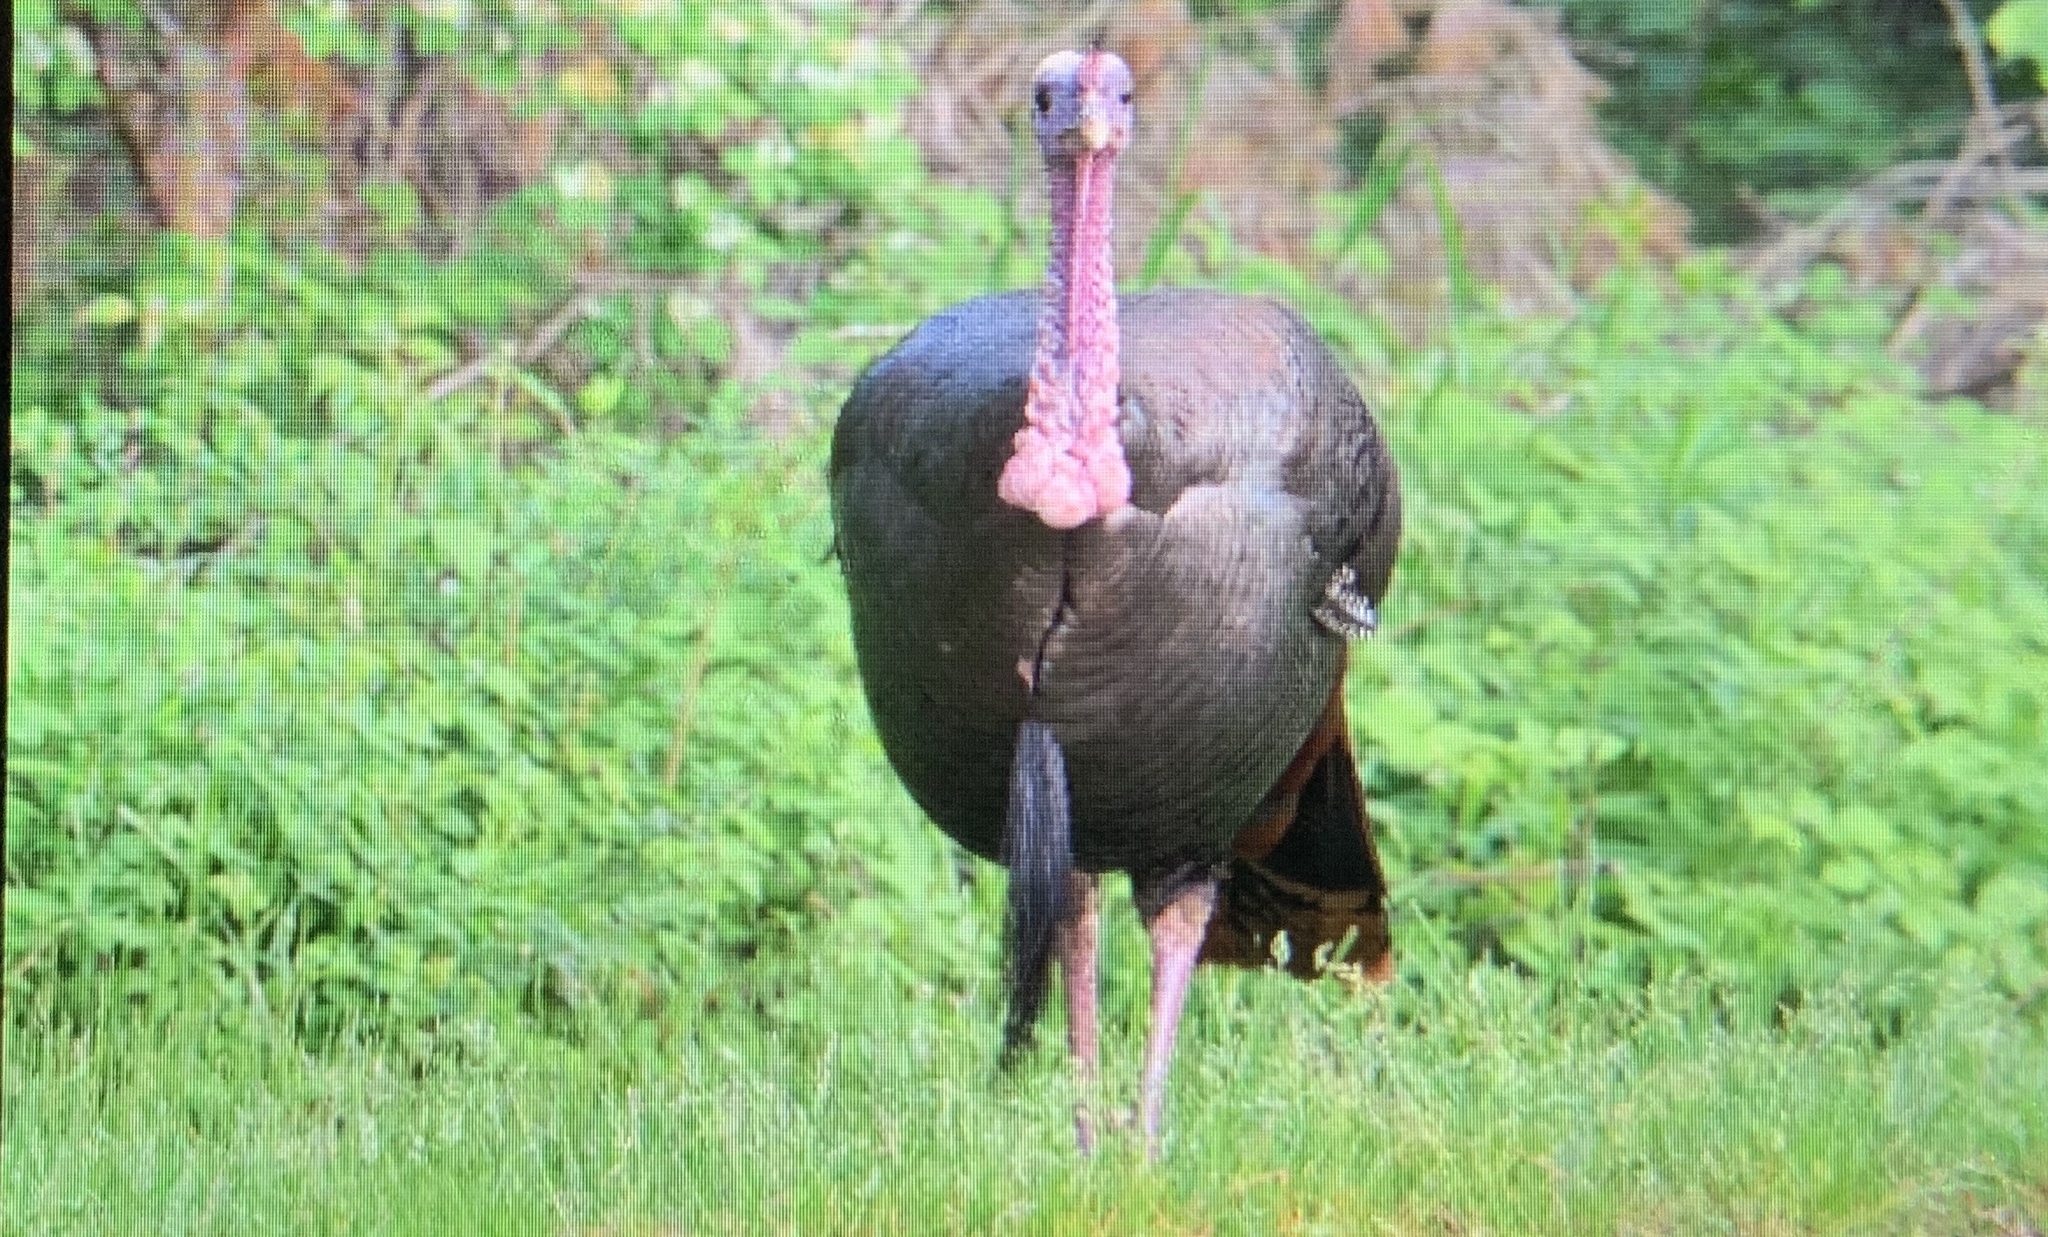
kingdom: Animalia
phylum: Chordata
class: Aves
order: Galliformes
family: Phasianidae
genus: Meleagris
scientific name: Meleagris gallopavo
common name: Wild turkey
